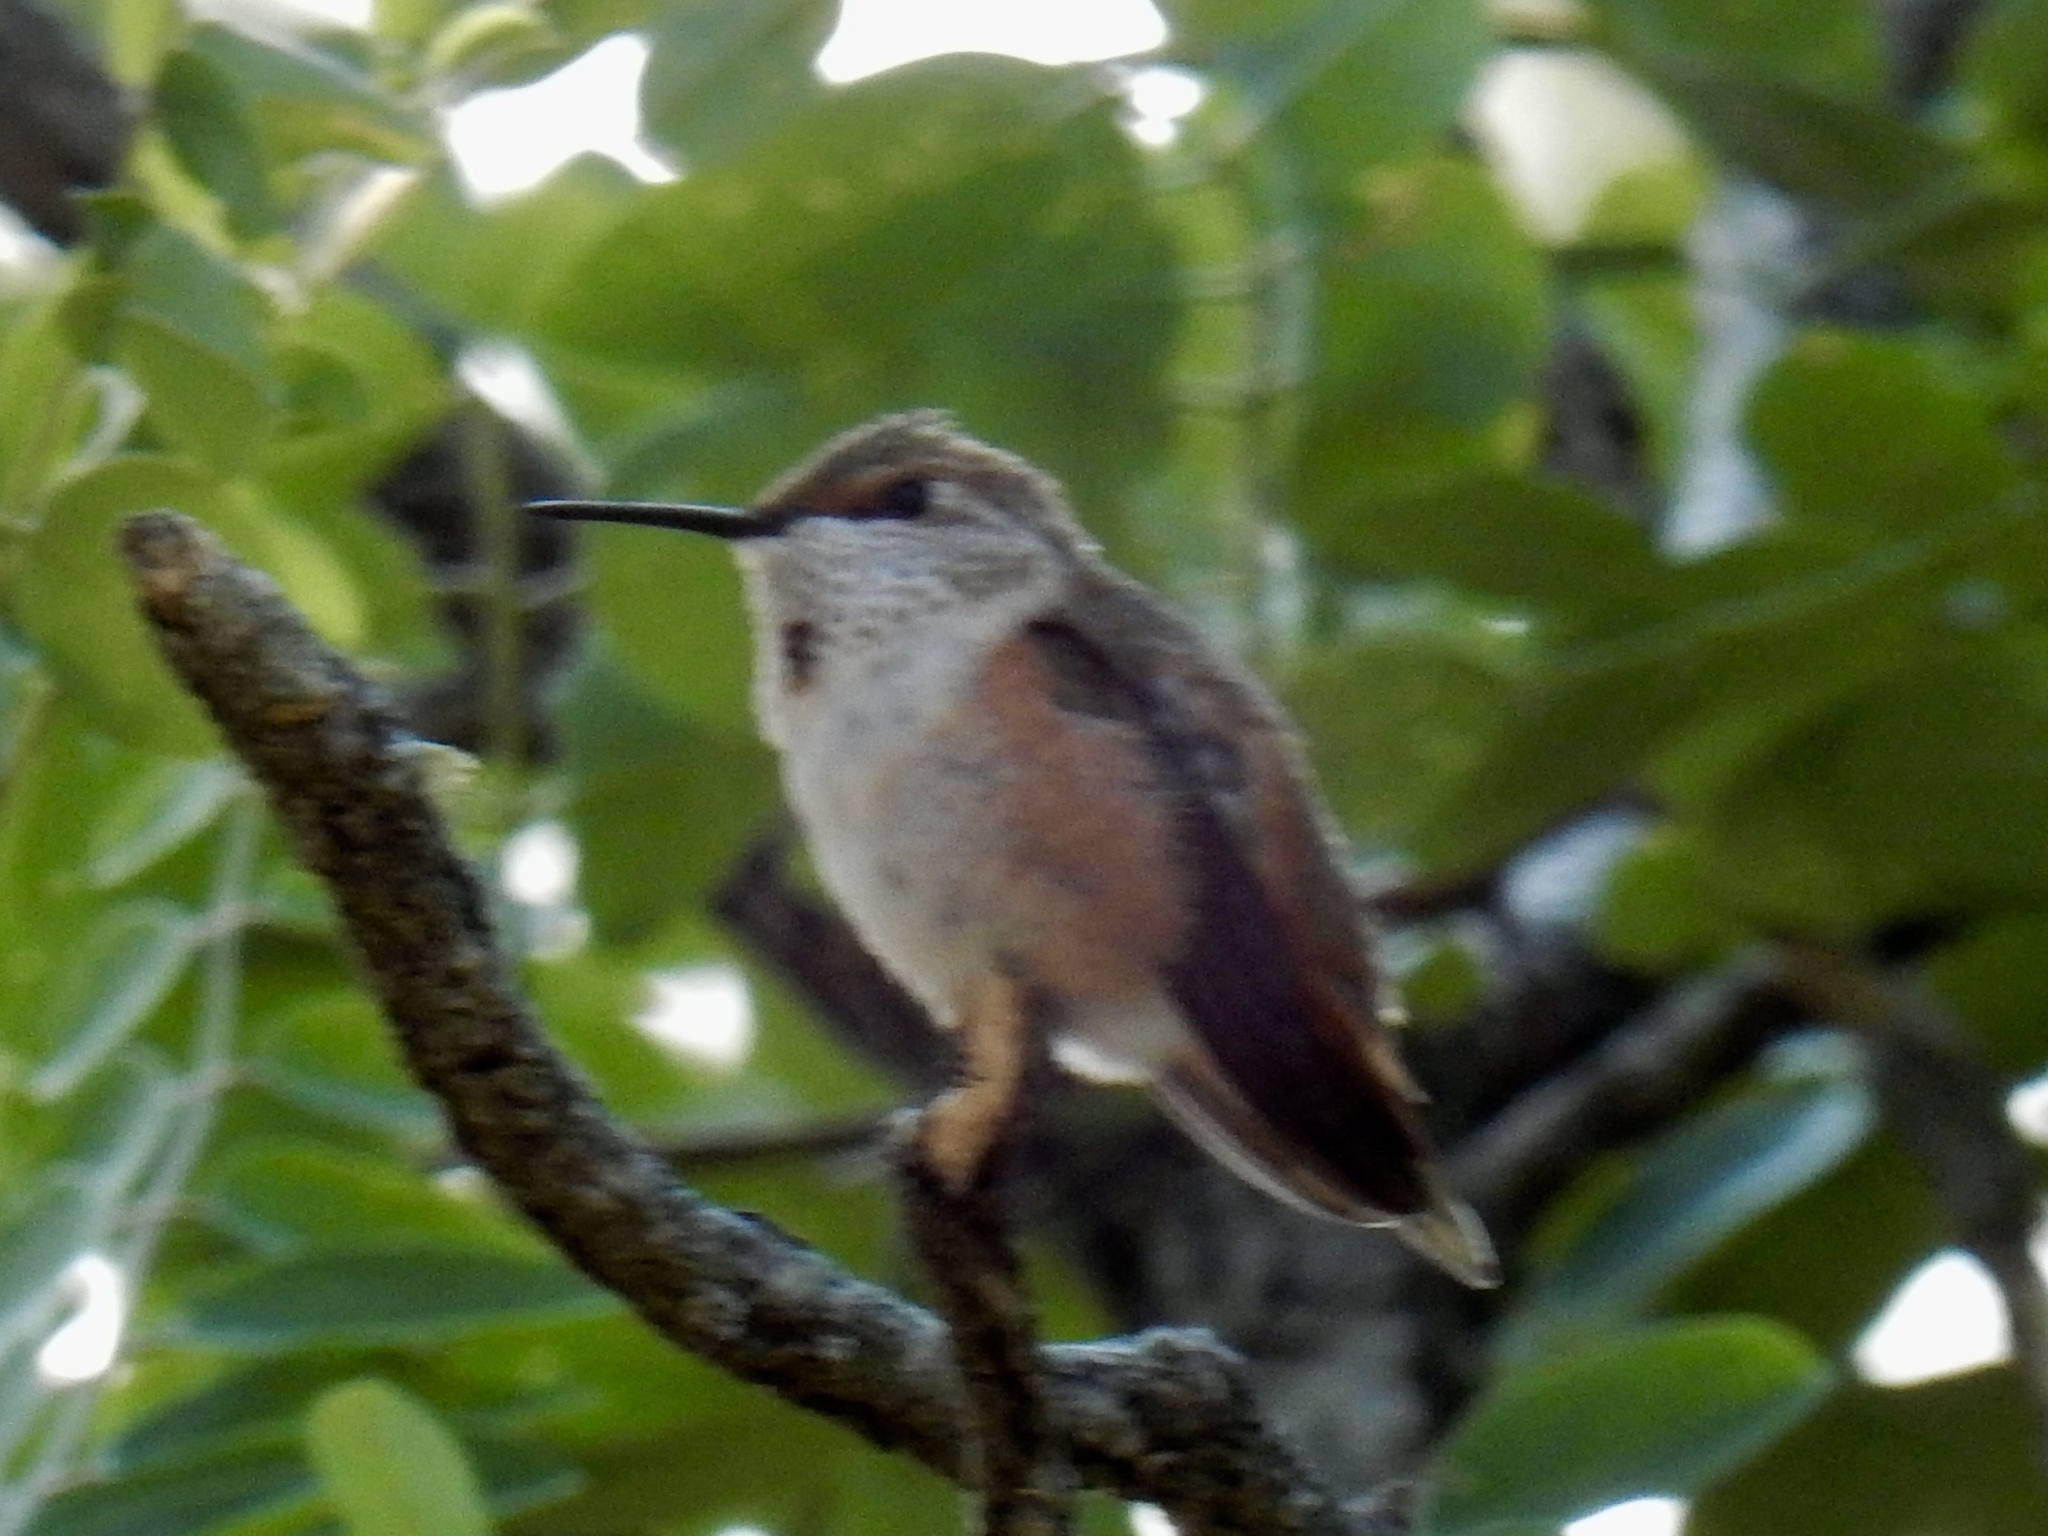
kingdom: Animalia
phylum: Chordata
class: Aves
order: Apodiformes
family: Trochilidae
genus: Selasphorus
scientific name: Selasphorus rufus
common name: Rufous hummingbird
